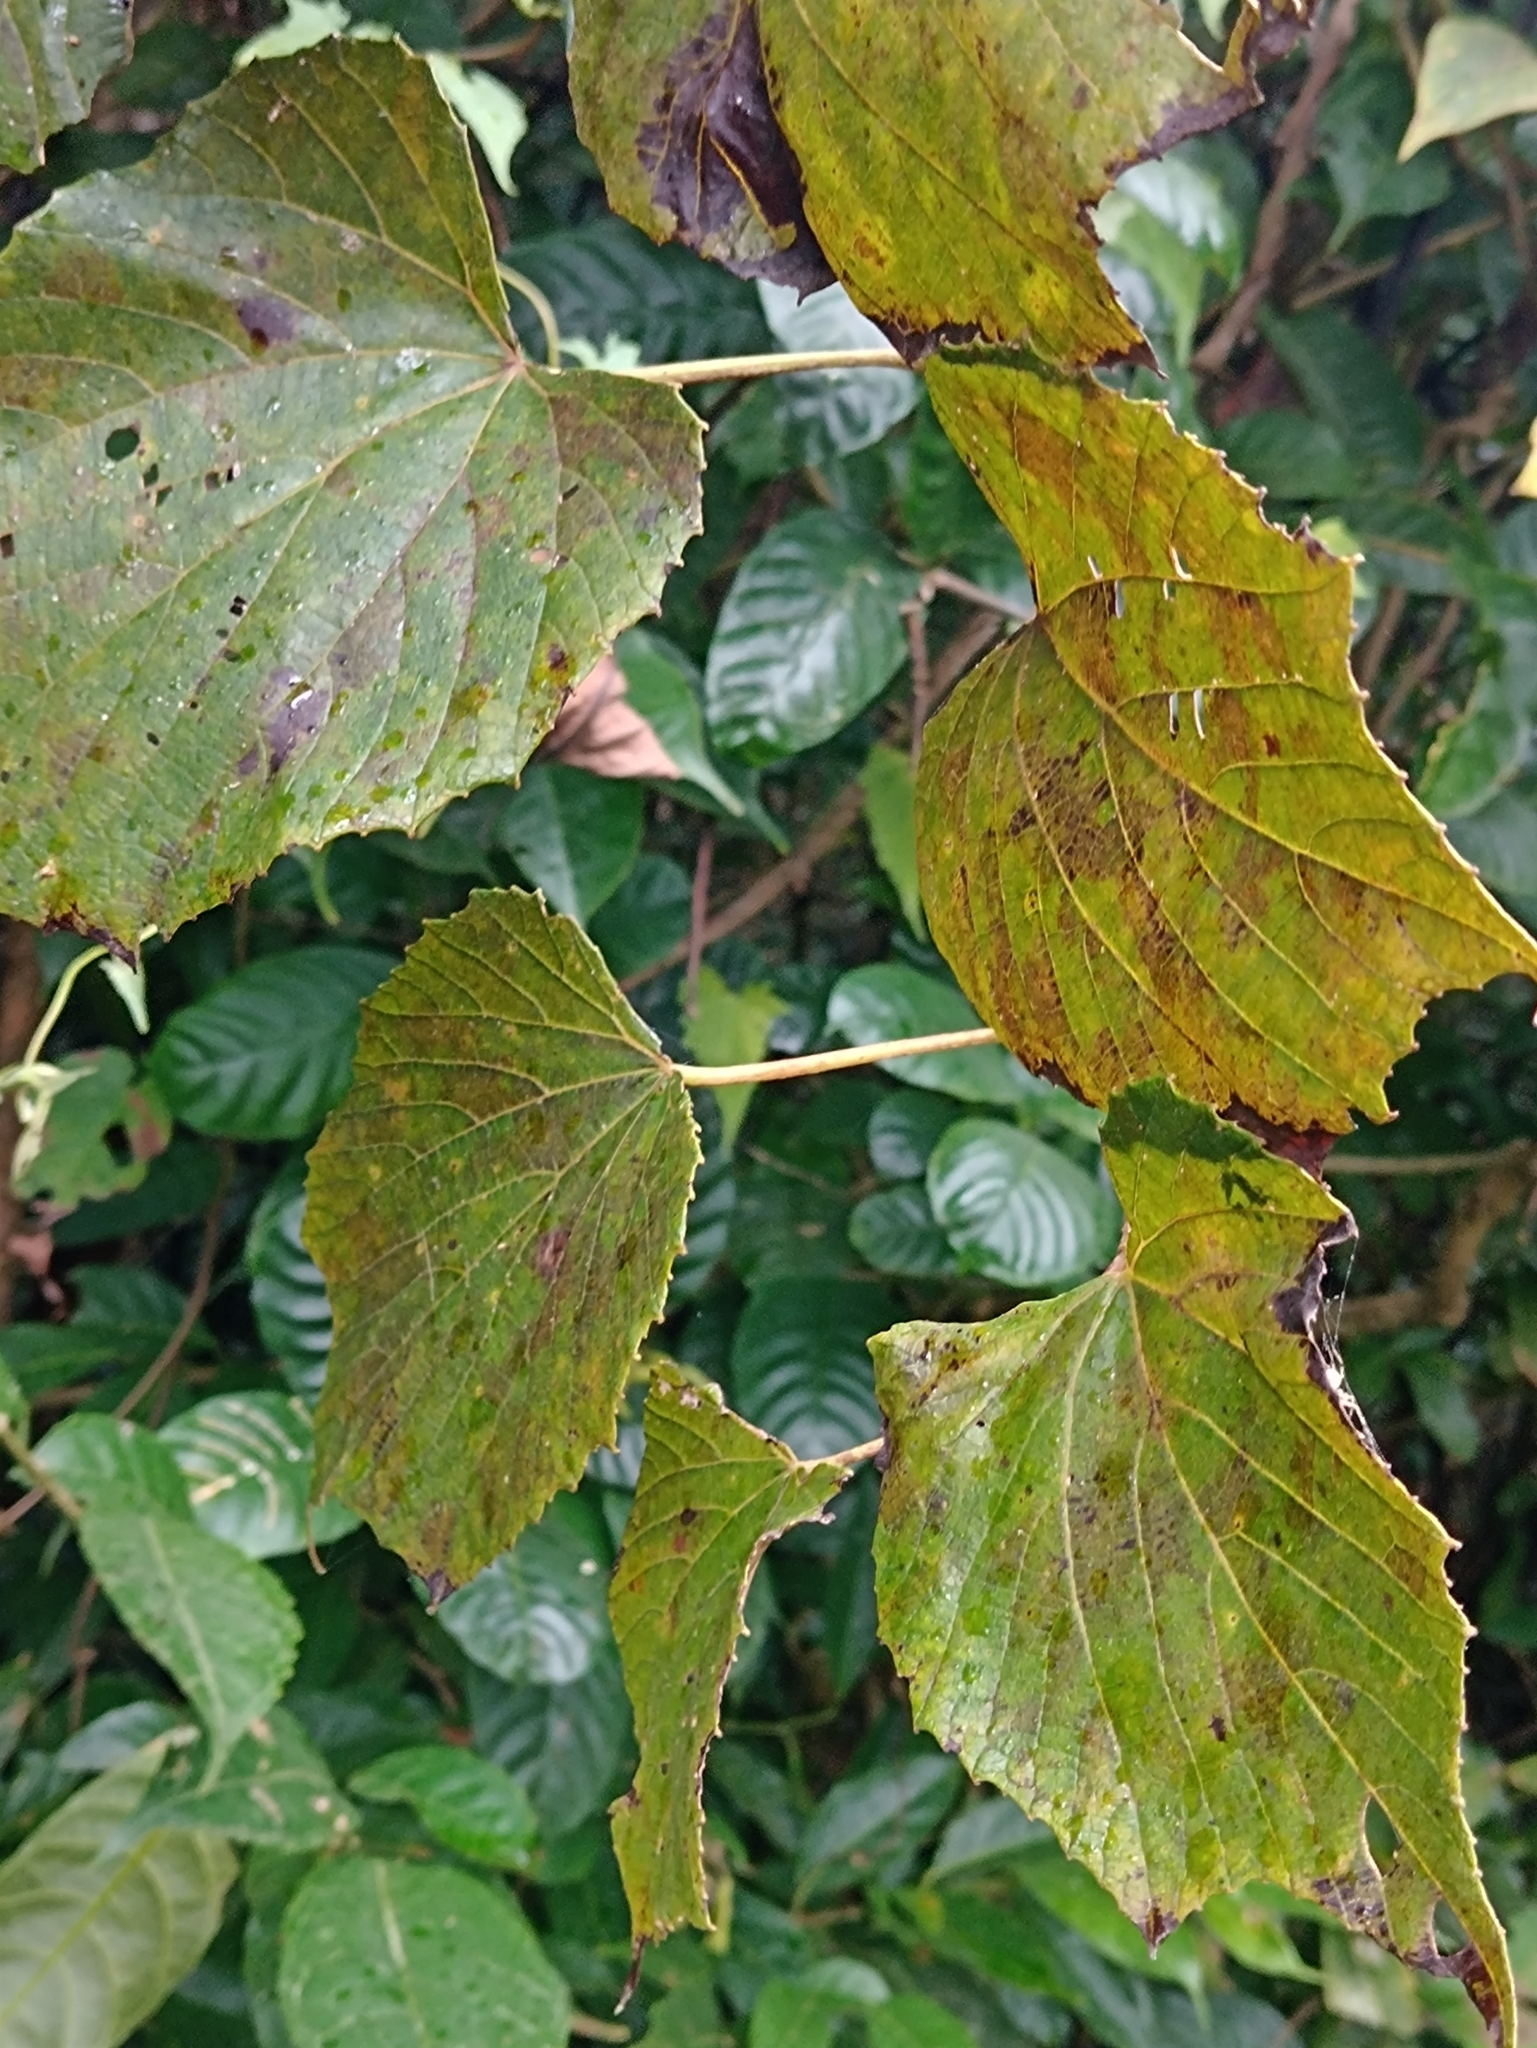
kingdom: Plantae
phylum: Tracheophyta
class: Magnoliopsida
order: Vitales
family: Vitaceae
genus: Vitis
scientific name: Vitis tiliifolia
